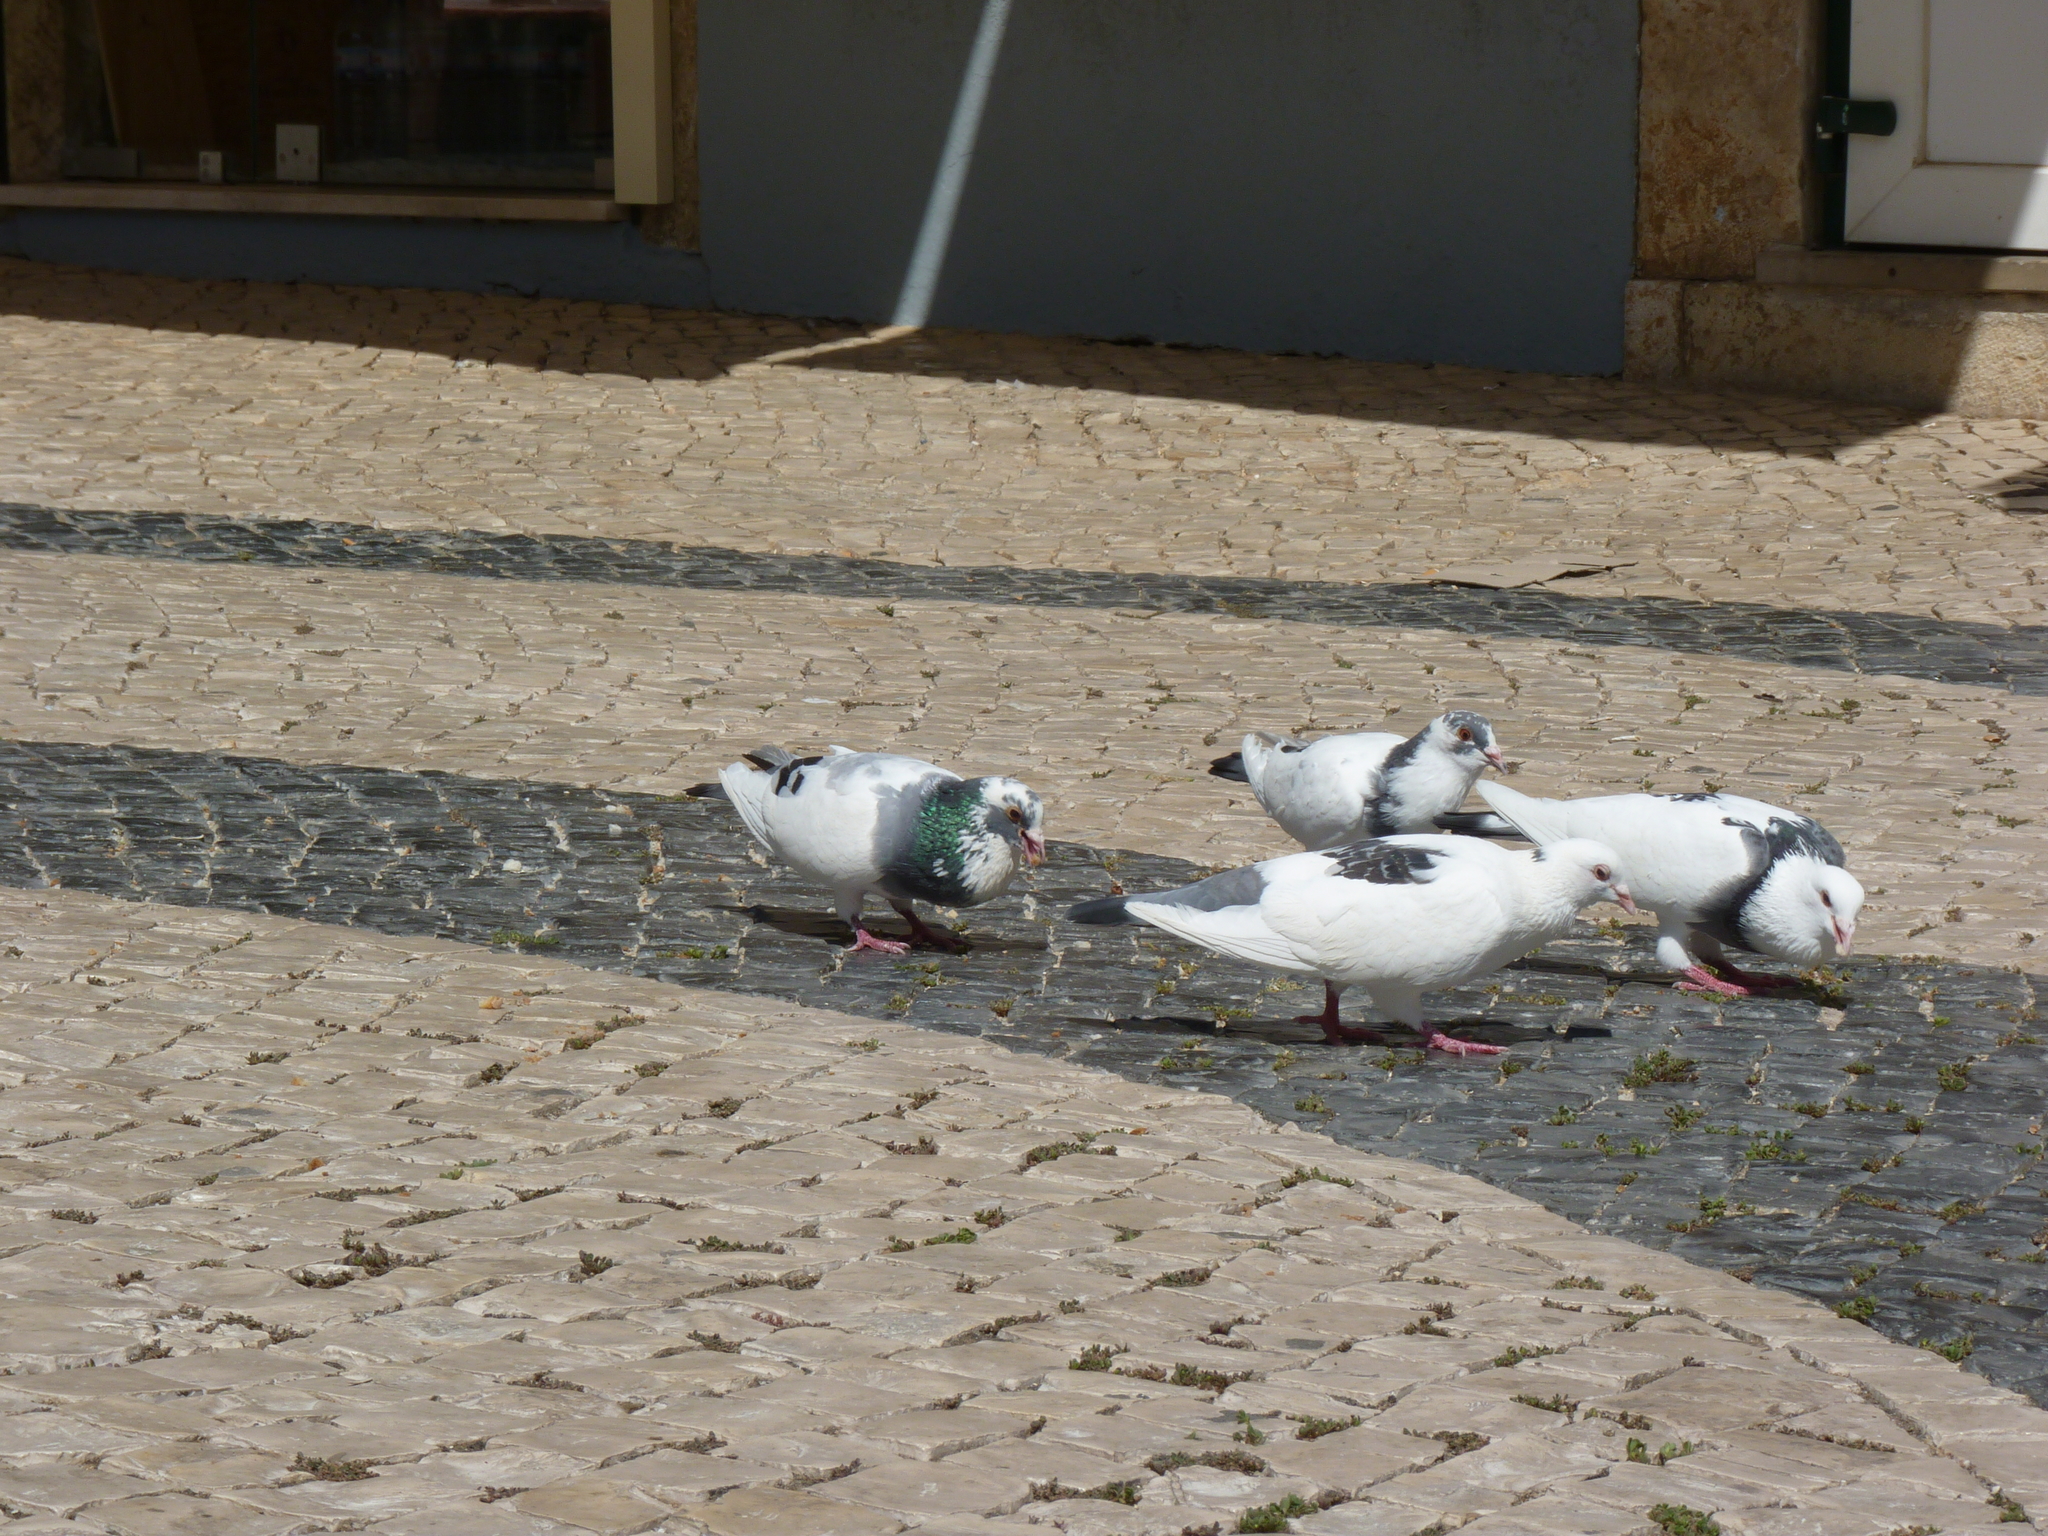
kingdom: Animalia
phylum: Chordata
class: Aves
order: Columbiformes
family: Columbidae
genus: Columba
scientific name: Columba livia
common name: Rock pigeon
